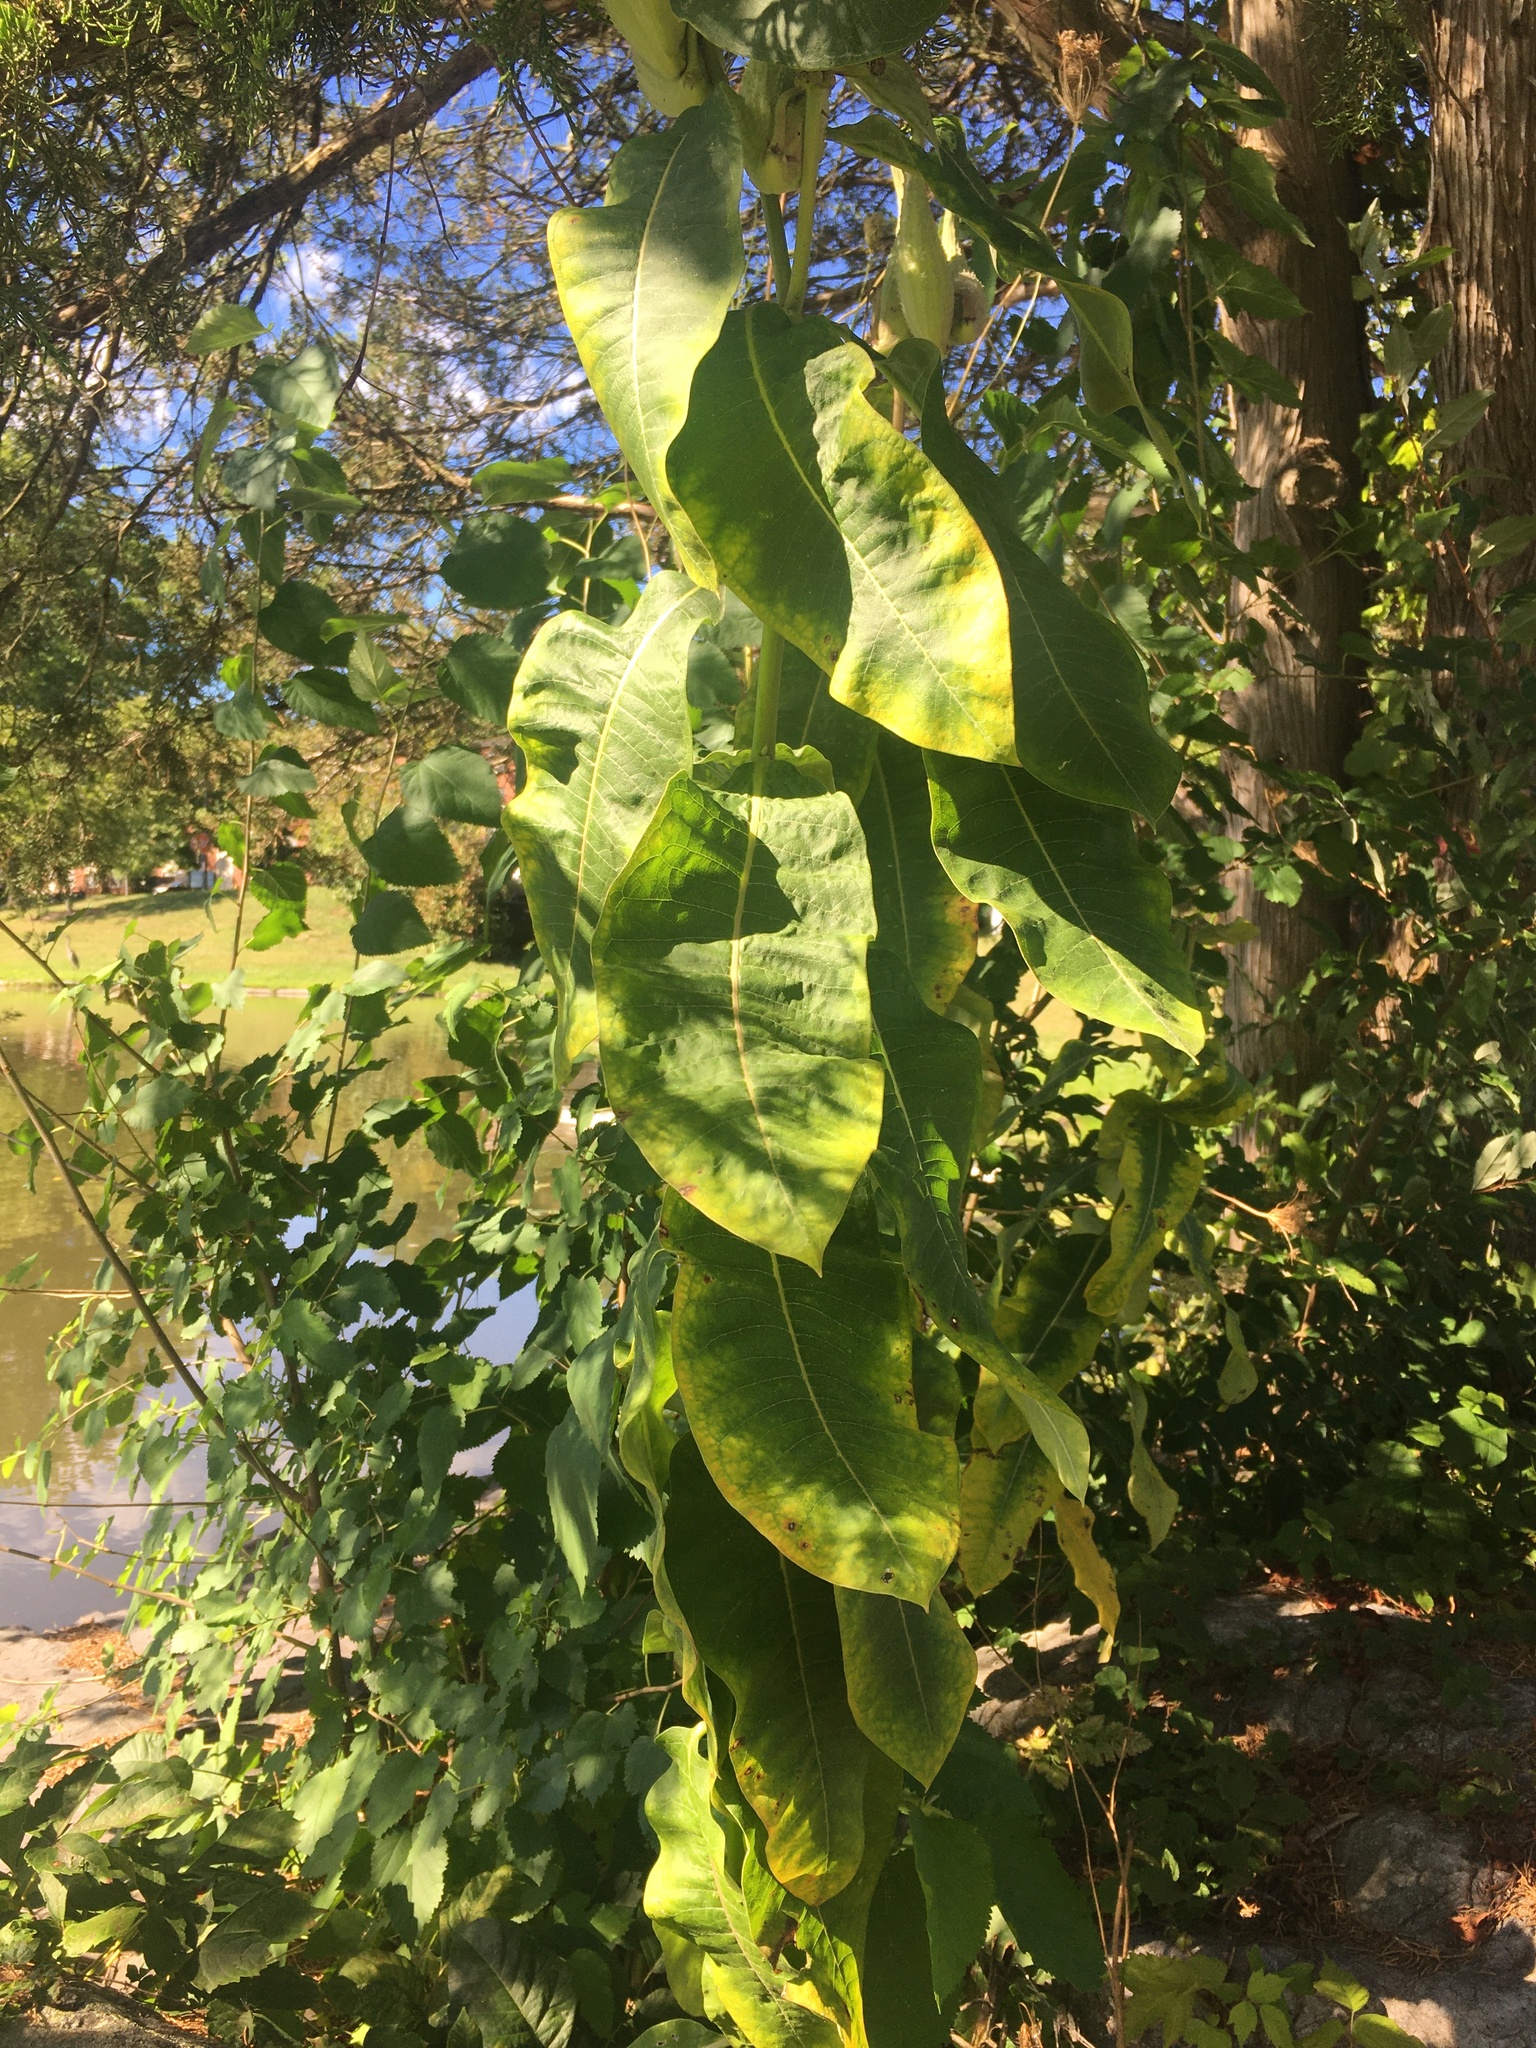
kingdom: Plantae
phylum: Tracheophyta
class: Magnoliopsida
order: Gentianales
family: Apocynaceae
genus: Asclepias
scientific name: Asclepias syriaca
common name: Common milkweed
